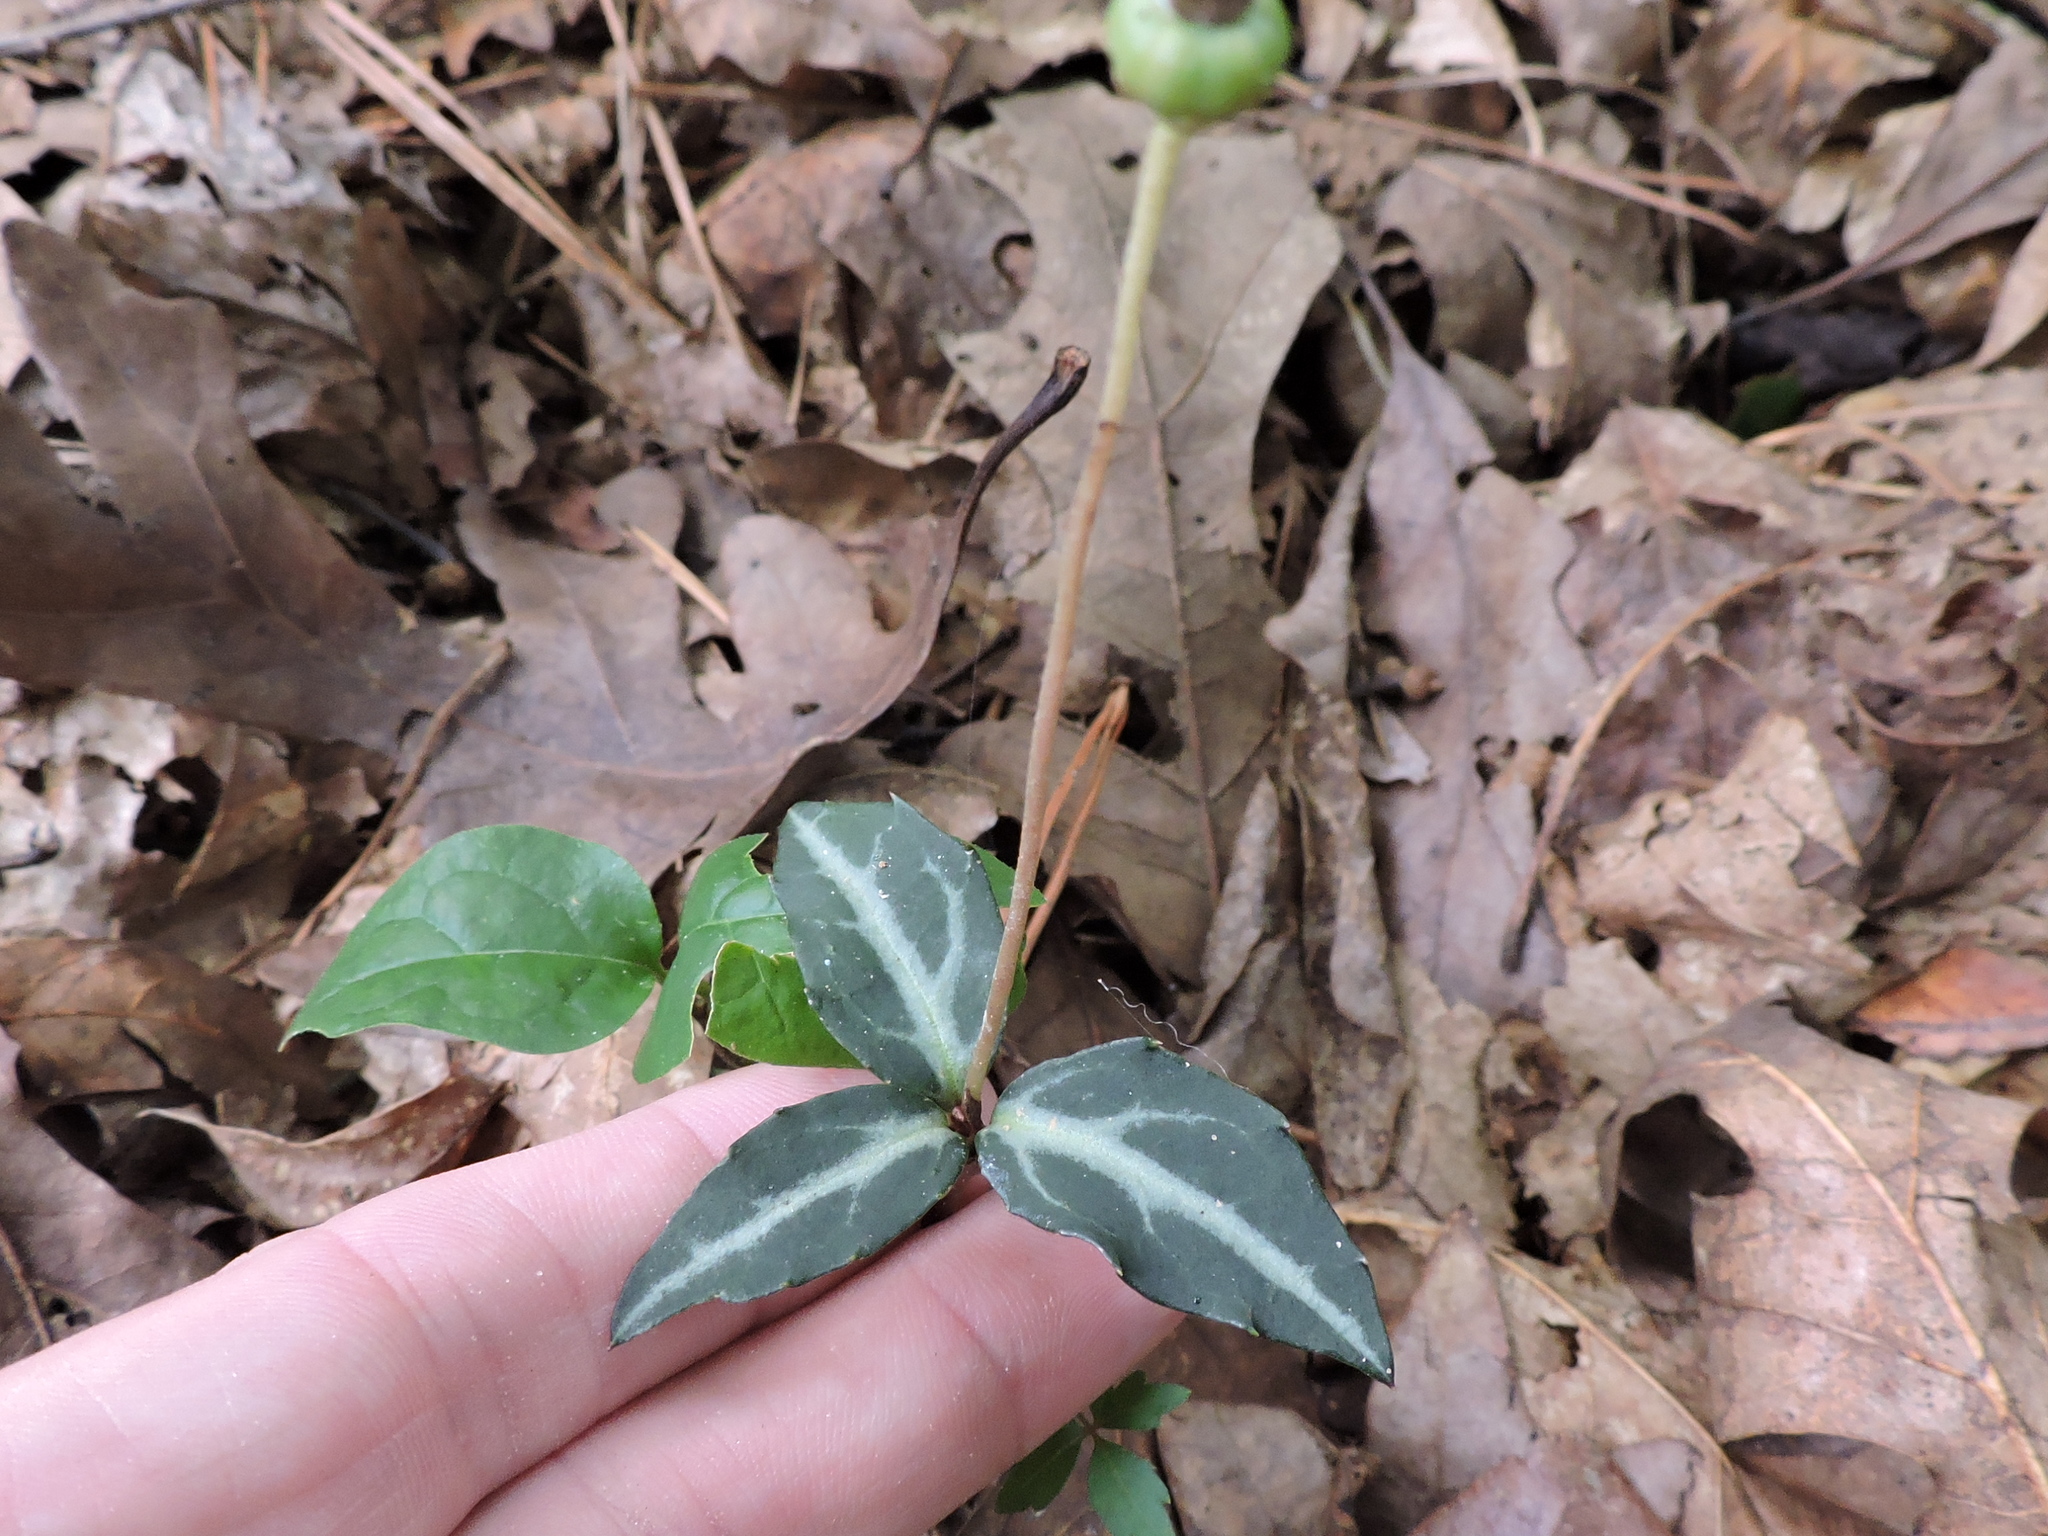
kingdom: Plantae
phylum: Tracheophyta
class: Magnoliopsida
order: Ericales
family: Ericaceae
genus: Chimaphila
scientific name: Chimaphila maculata
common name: Spotted pipsissewa
